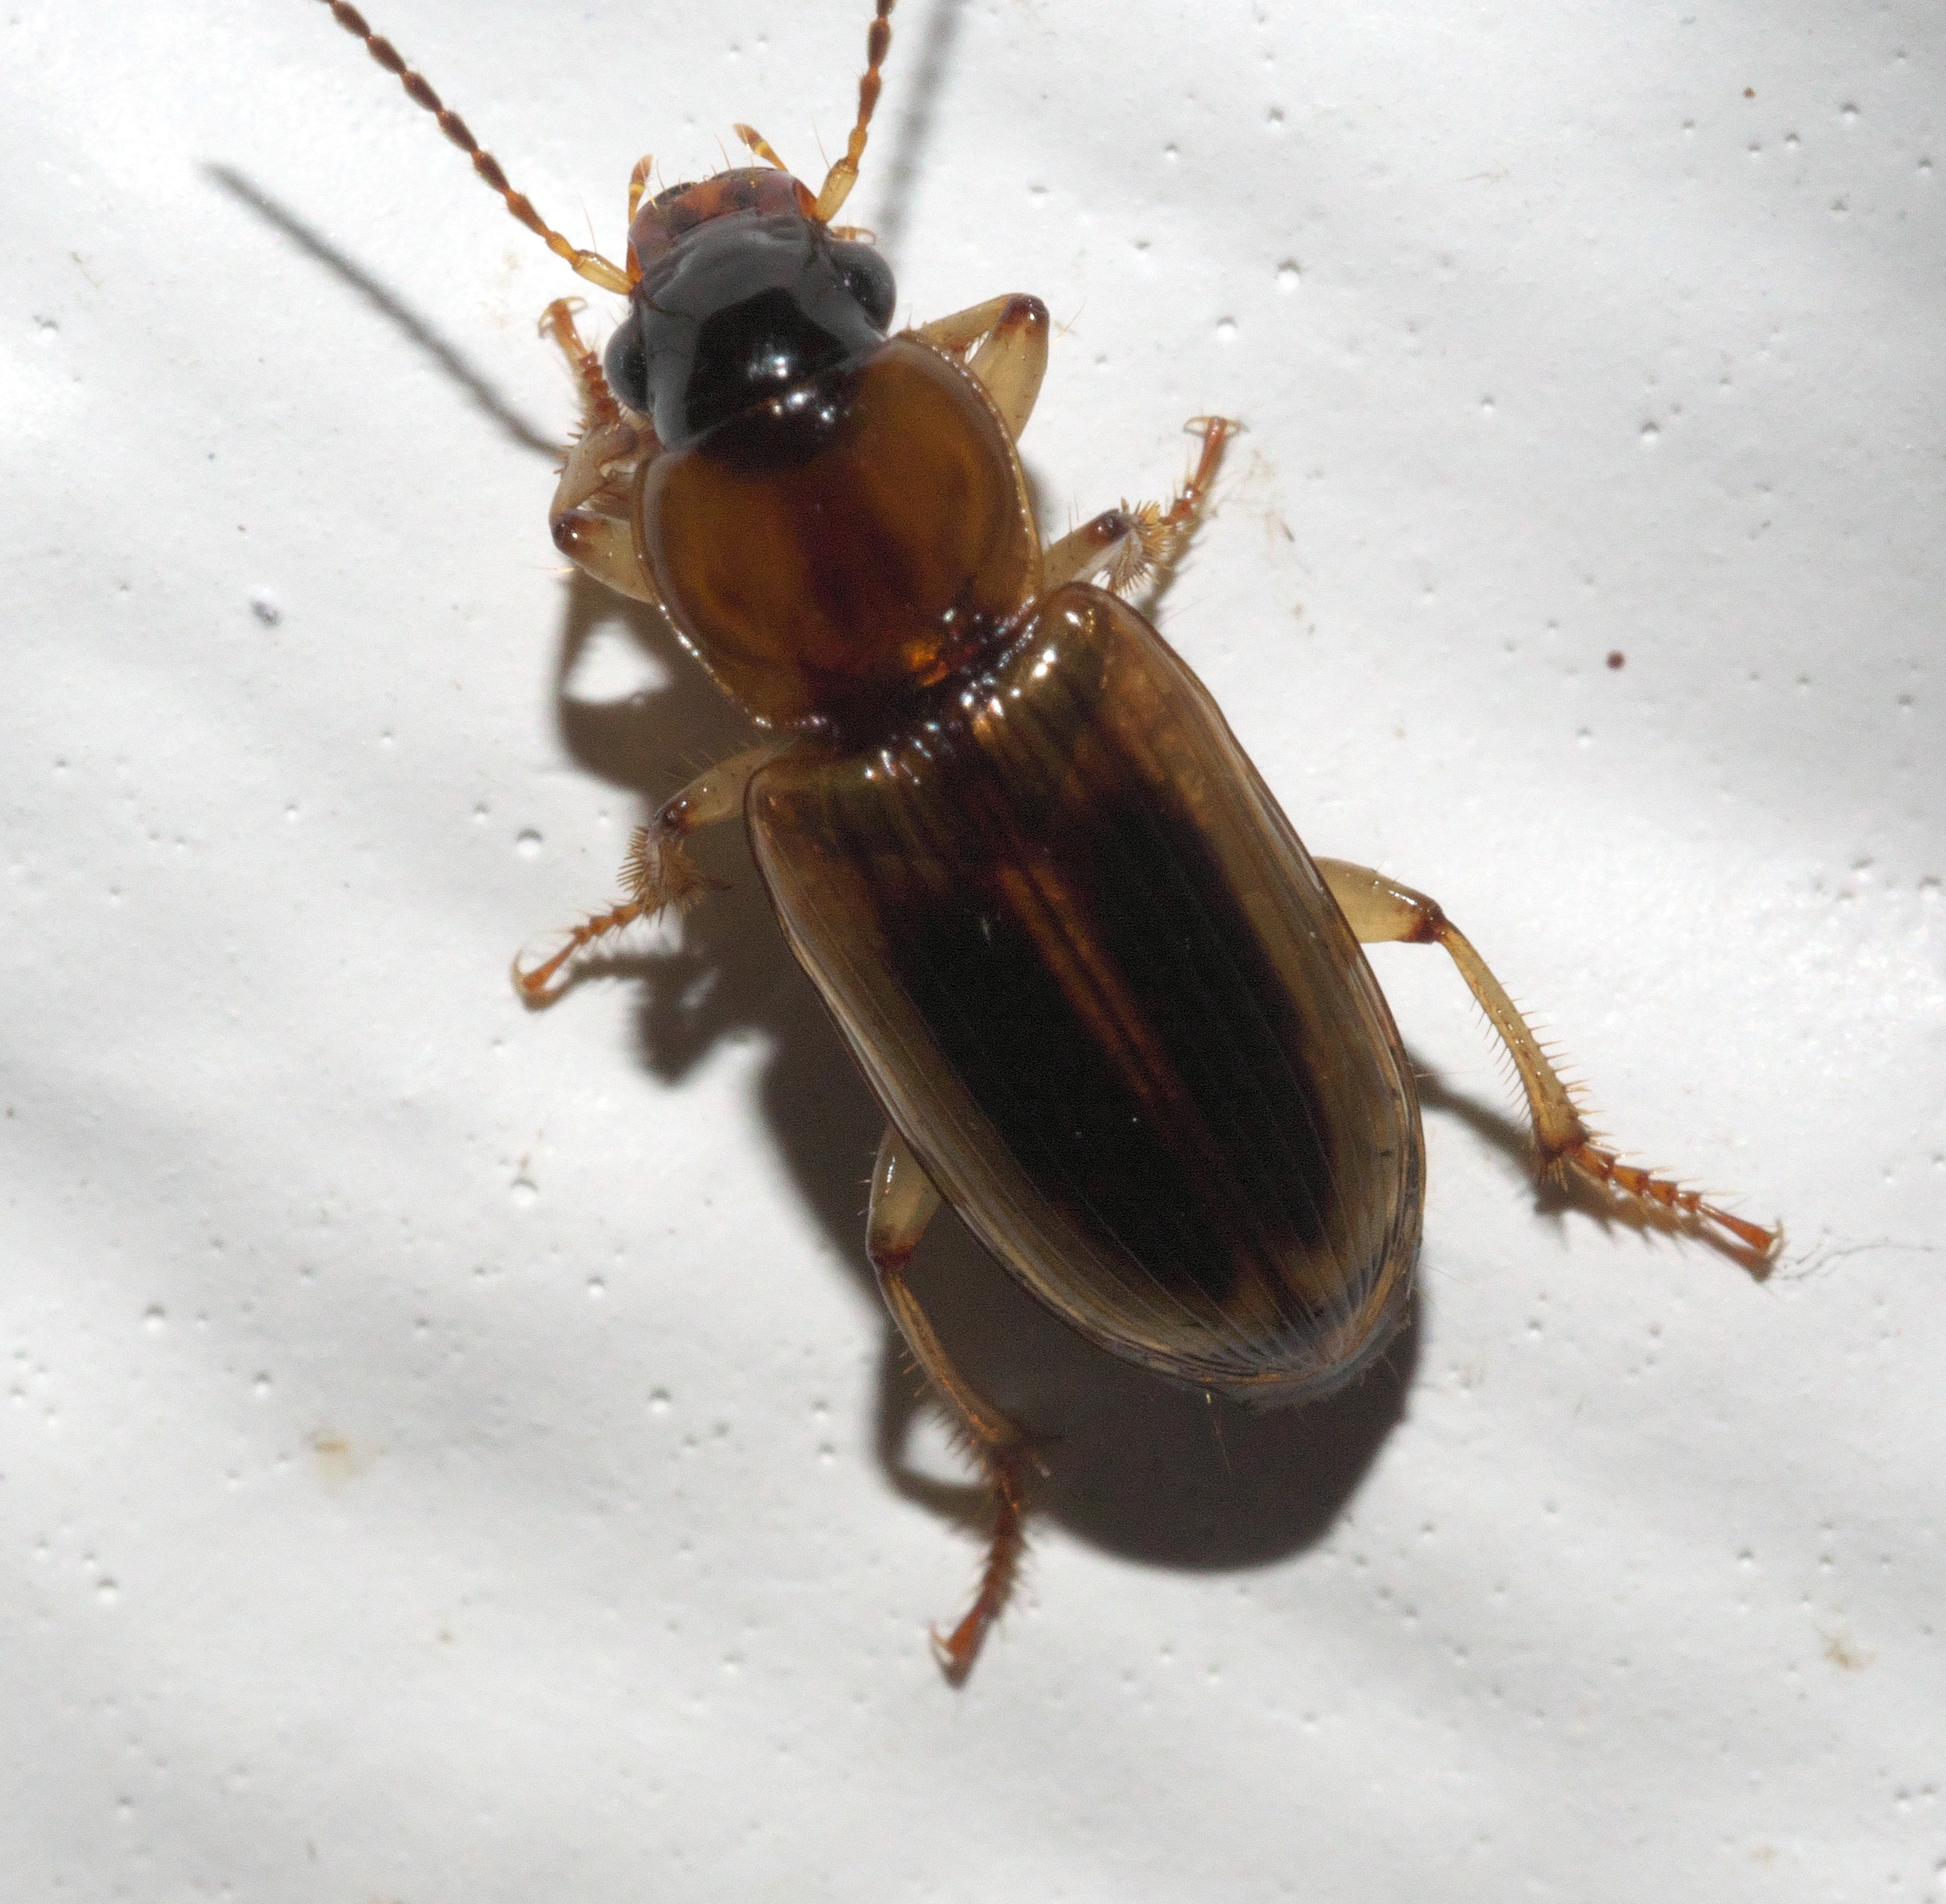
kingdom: Animalia
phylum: Arthropoda
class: Insecta
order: Coleoptera
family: Carabidae
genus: Stenolophus
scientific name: Stenolophus comma
